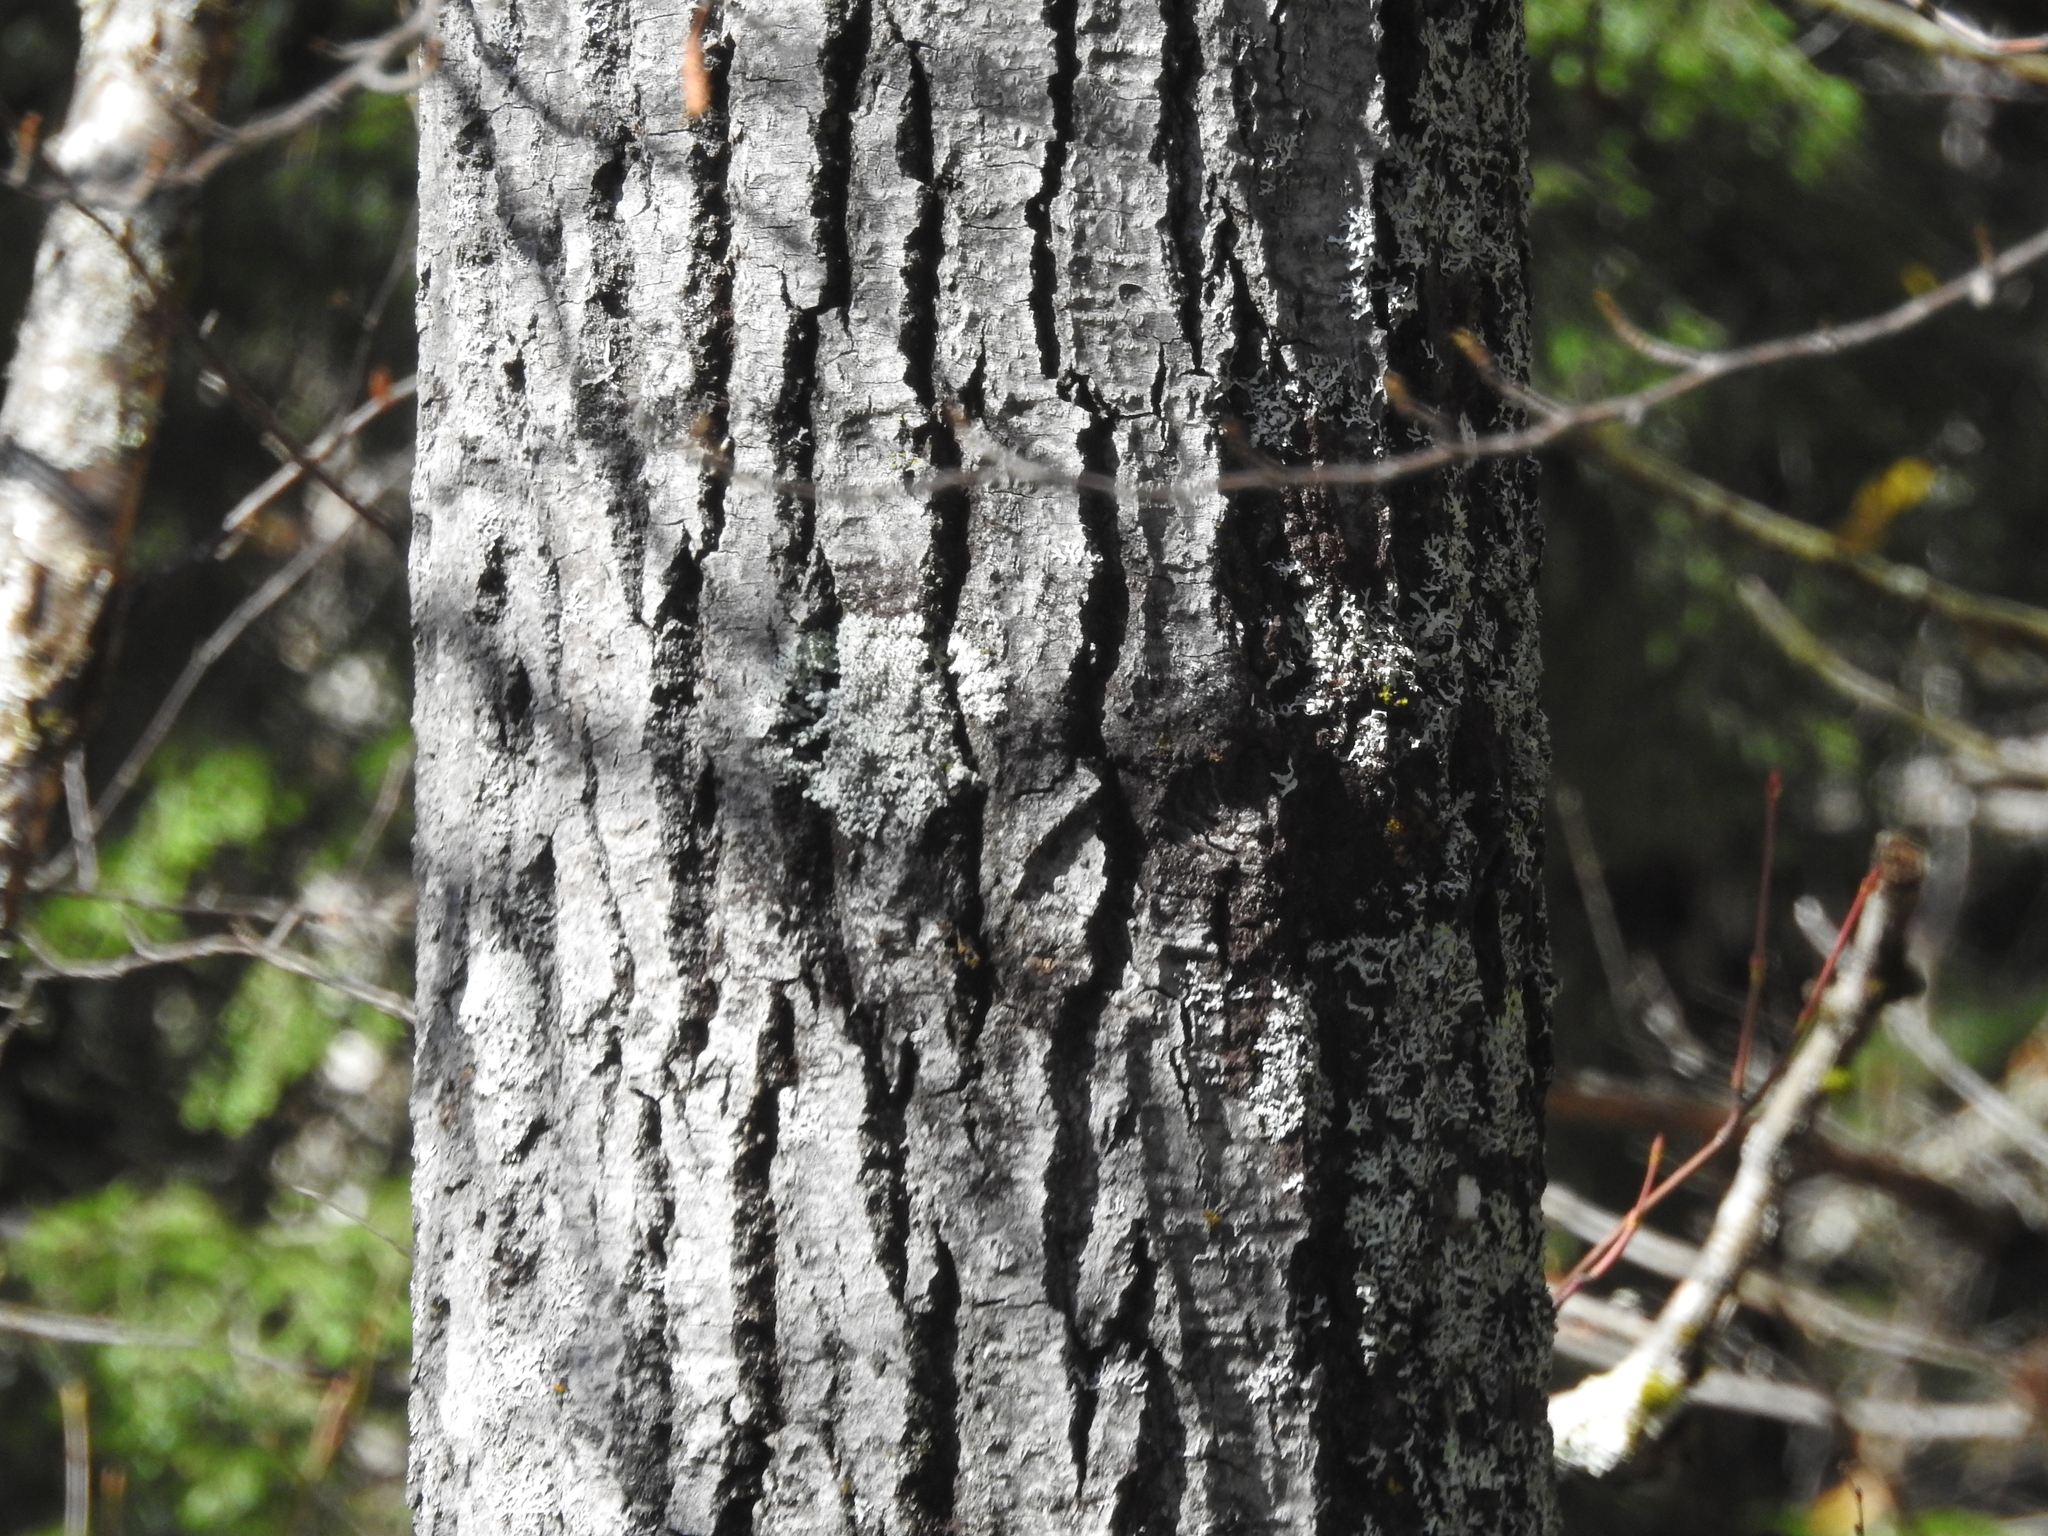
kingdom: Plantae
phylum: Tracheophyta
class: Magnoliopsida
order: Malpighiales
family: Salicaceae
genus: Populus
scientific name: Populus grandidentata
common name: Bigtooth aspen
